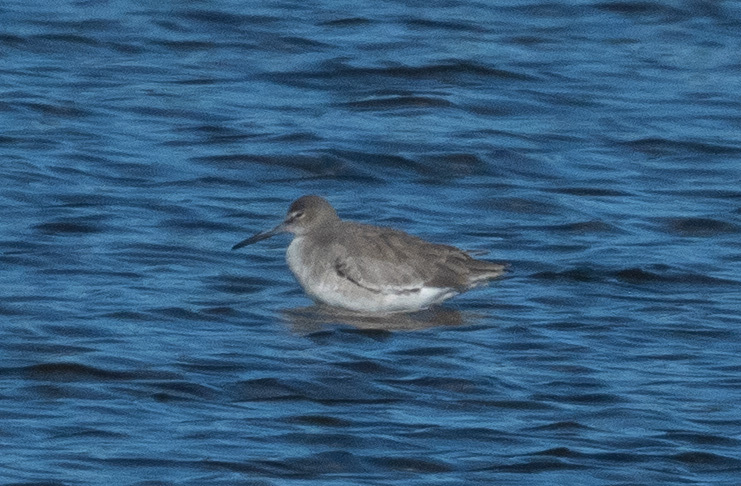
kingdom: Animalia
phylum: Chordata
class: Aves
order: Charadriiformes
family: Scolopacidae
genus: Tringa
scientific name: Tringa semipalmata
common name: Willet
